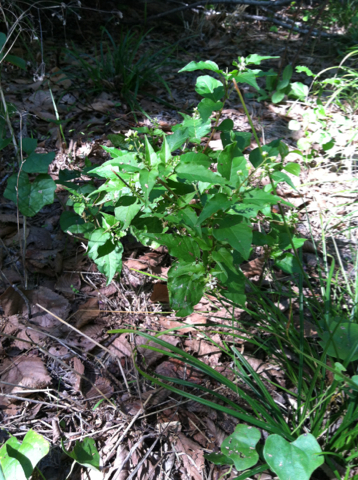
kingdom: Plantae
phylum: Tracheophyta
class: Magnoliopsida
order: Caryophyllales
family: Phytolaccaceae
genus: Rivina
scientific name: Rivina humilis
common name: Rougeplant
